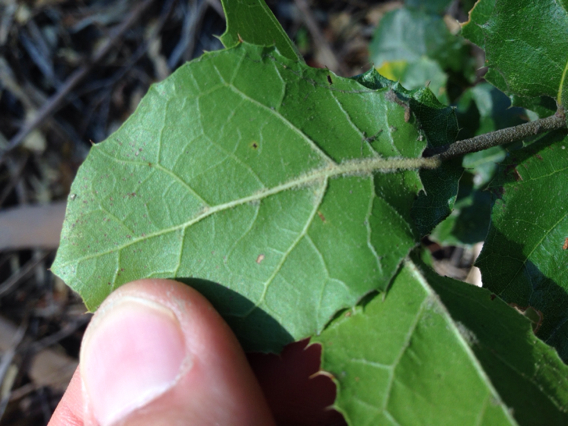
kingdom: Plantae
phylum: Tracheophyta
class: Magnoliopsida
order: Fagales
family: Fagaceae
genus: Quercus
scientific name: Quercus agrifolia
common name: California live oak
